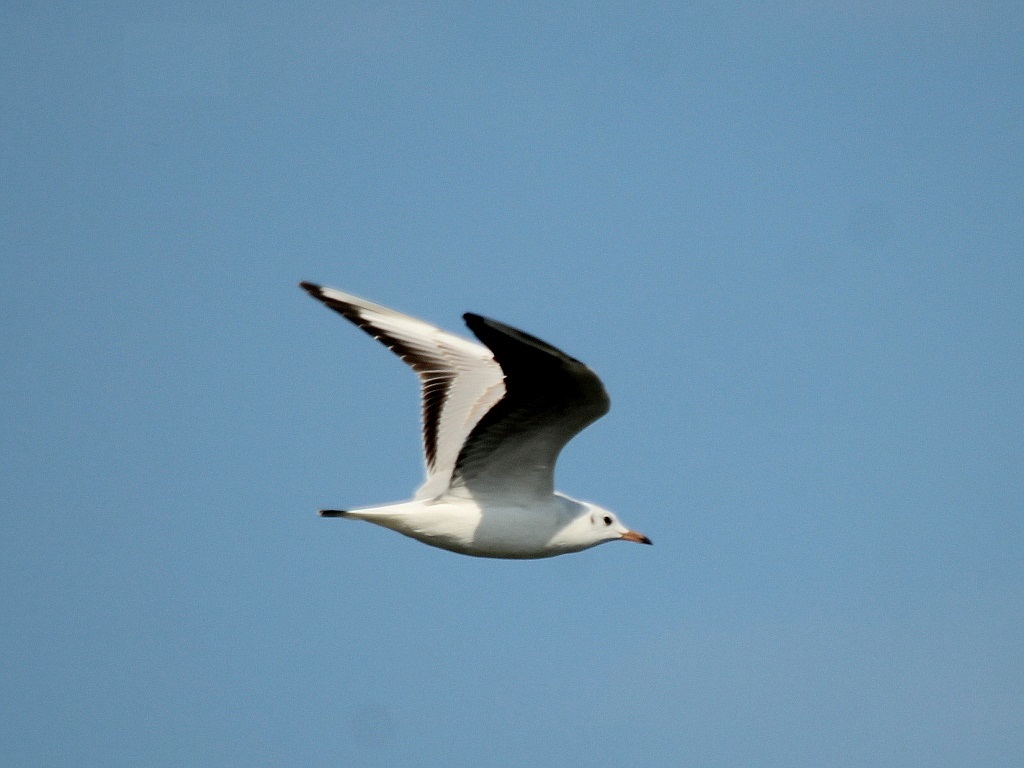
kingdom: Animalia
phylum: Chordata
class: Aves
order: Charadriiformes
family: Laridae
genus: Chroicocephalus
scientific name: Chroicocephalus ridibundus
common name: Black-headed gull
